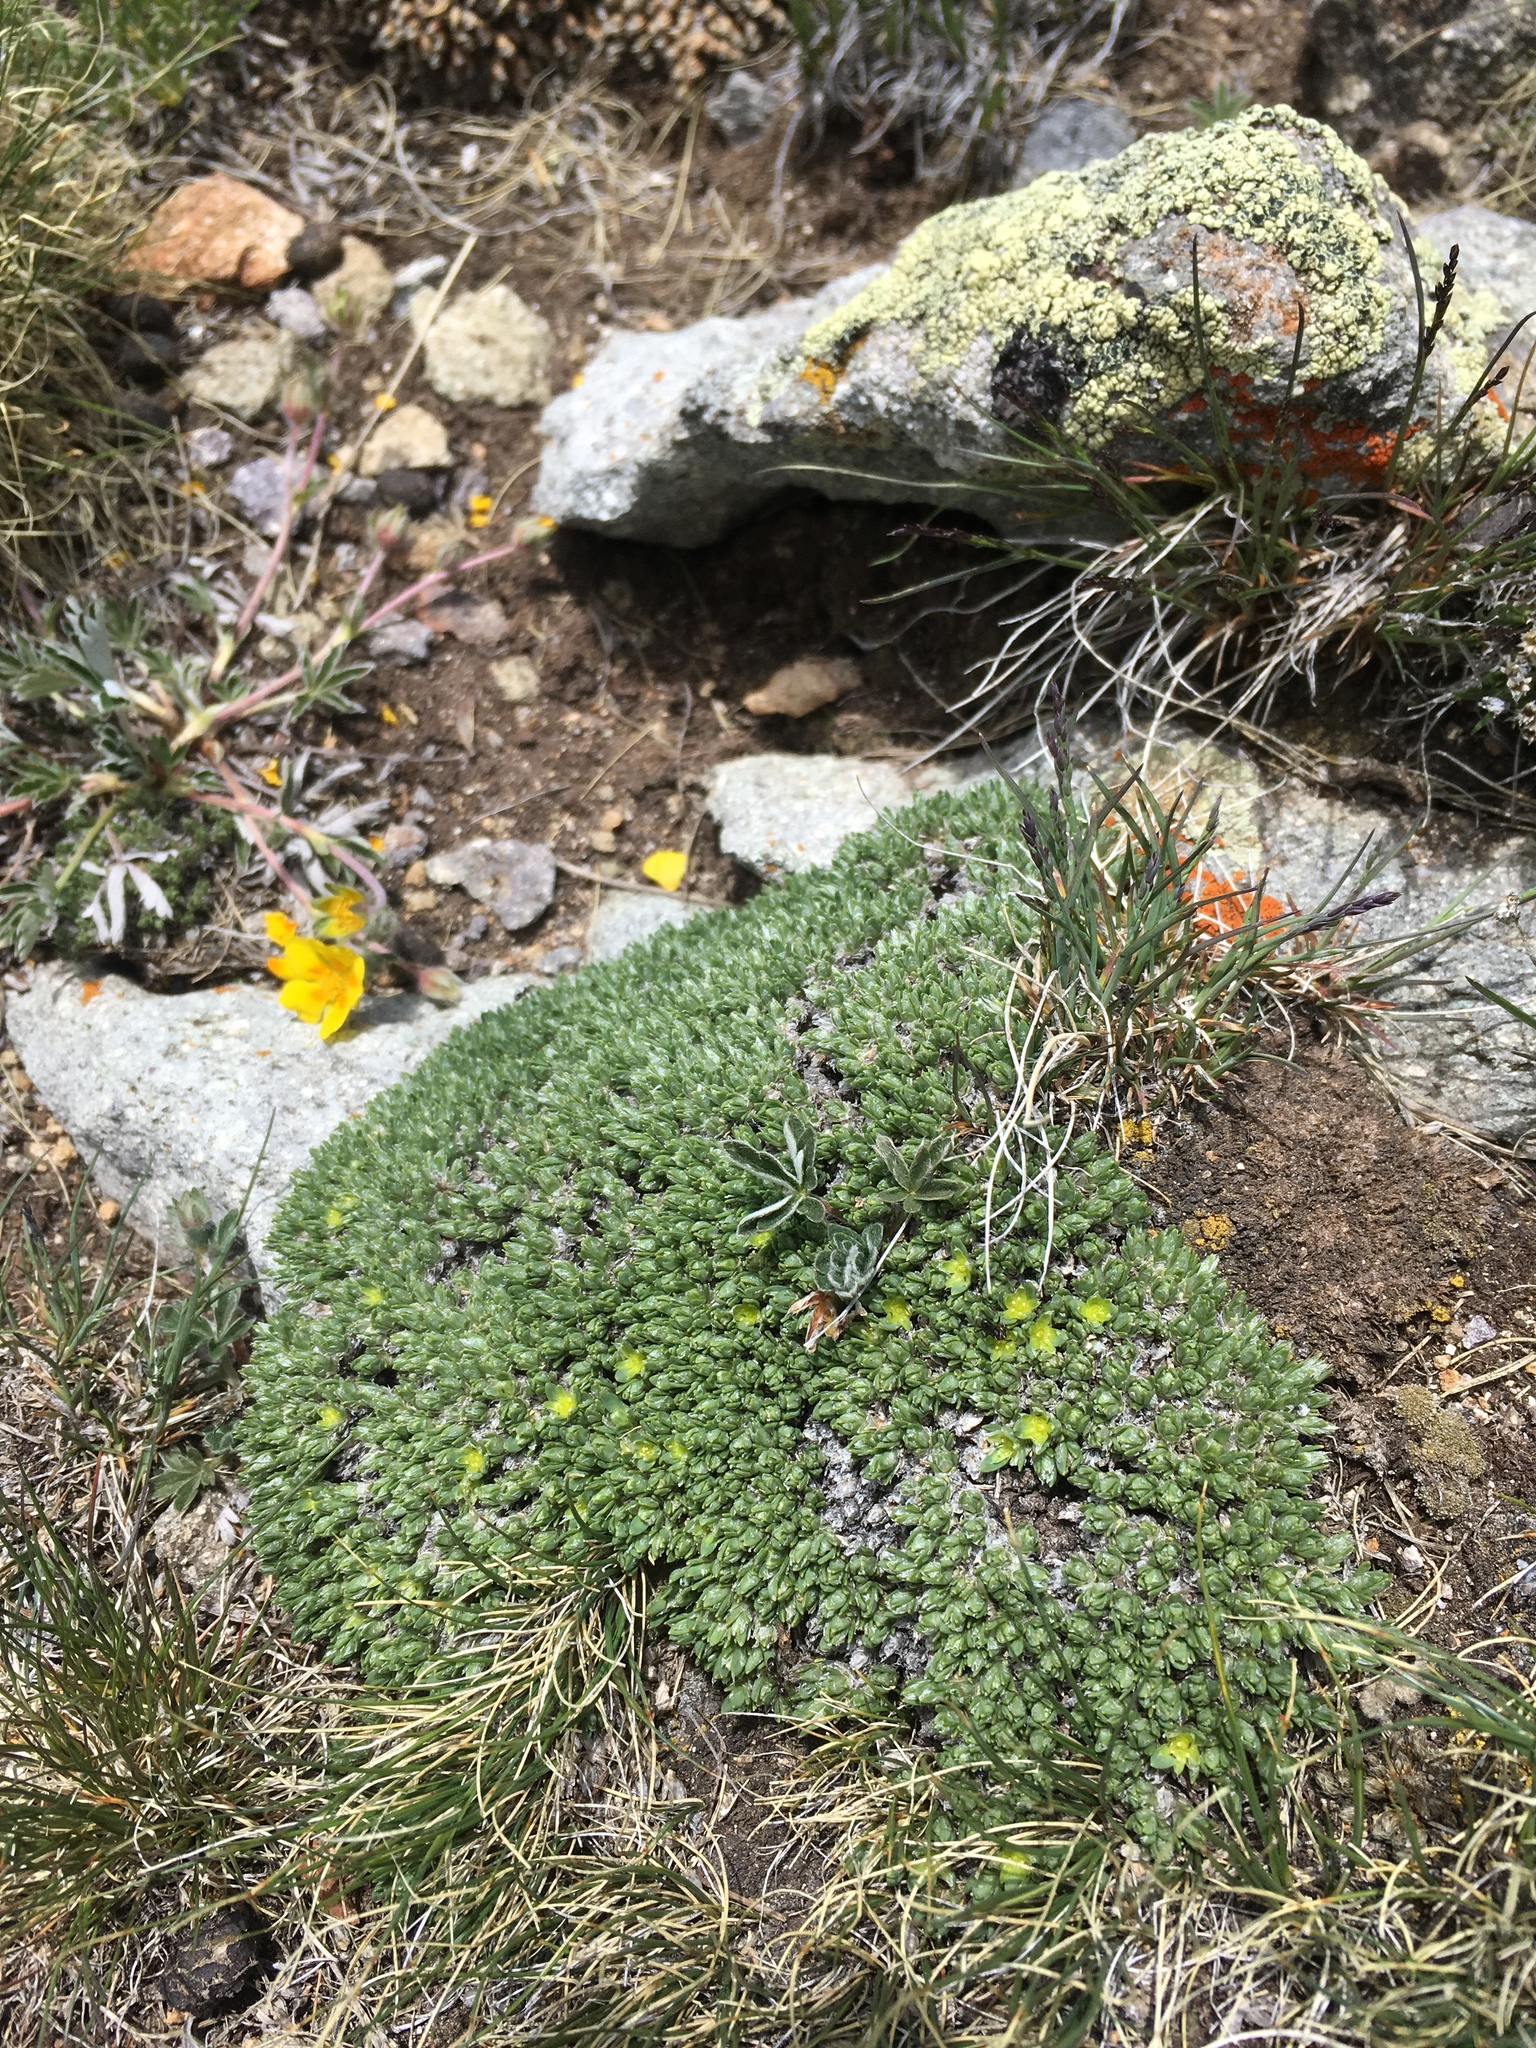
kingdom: Plantae
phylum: Tracheophyta
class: Magnoliopsida
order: Caryophyllales
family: Caryophyllaceae
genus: Paronychia
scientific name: Paronychia pulvinata
